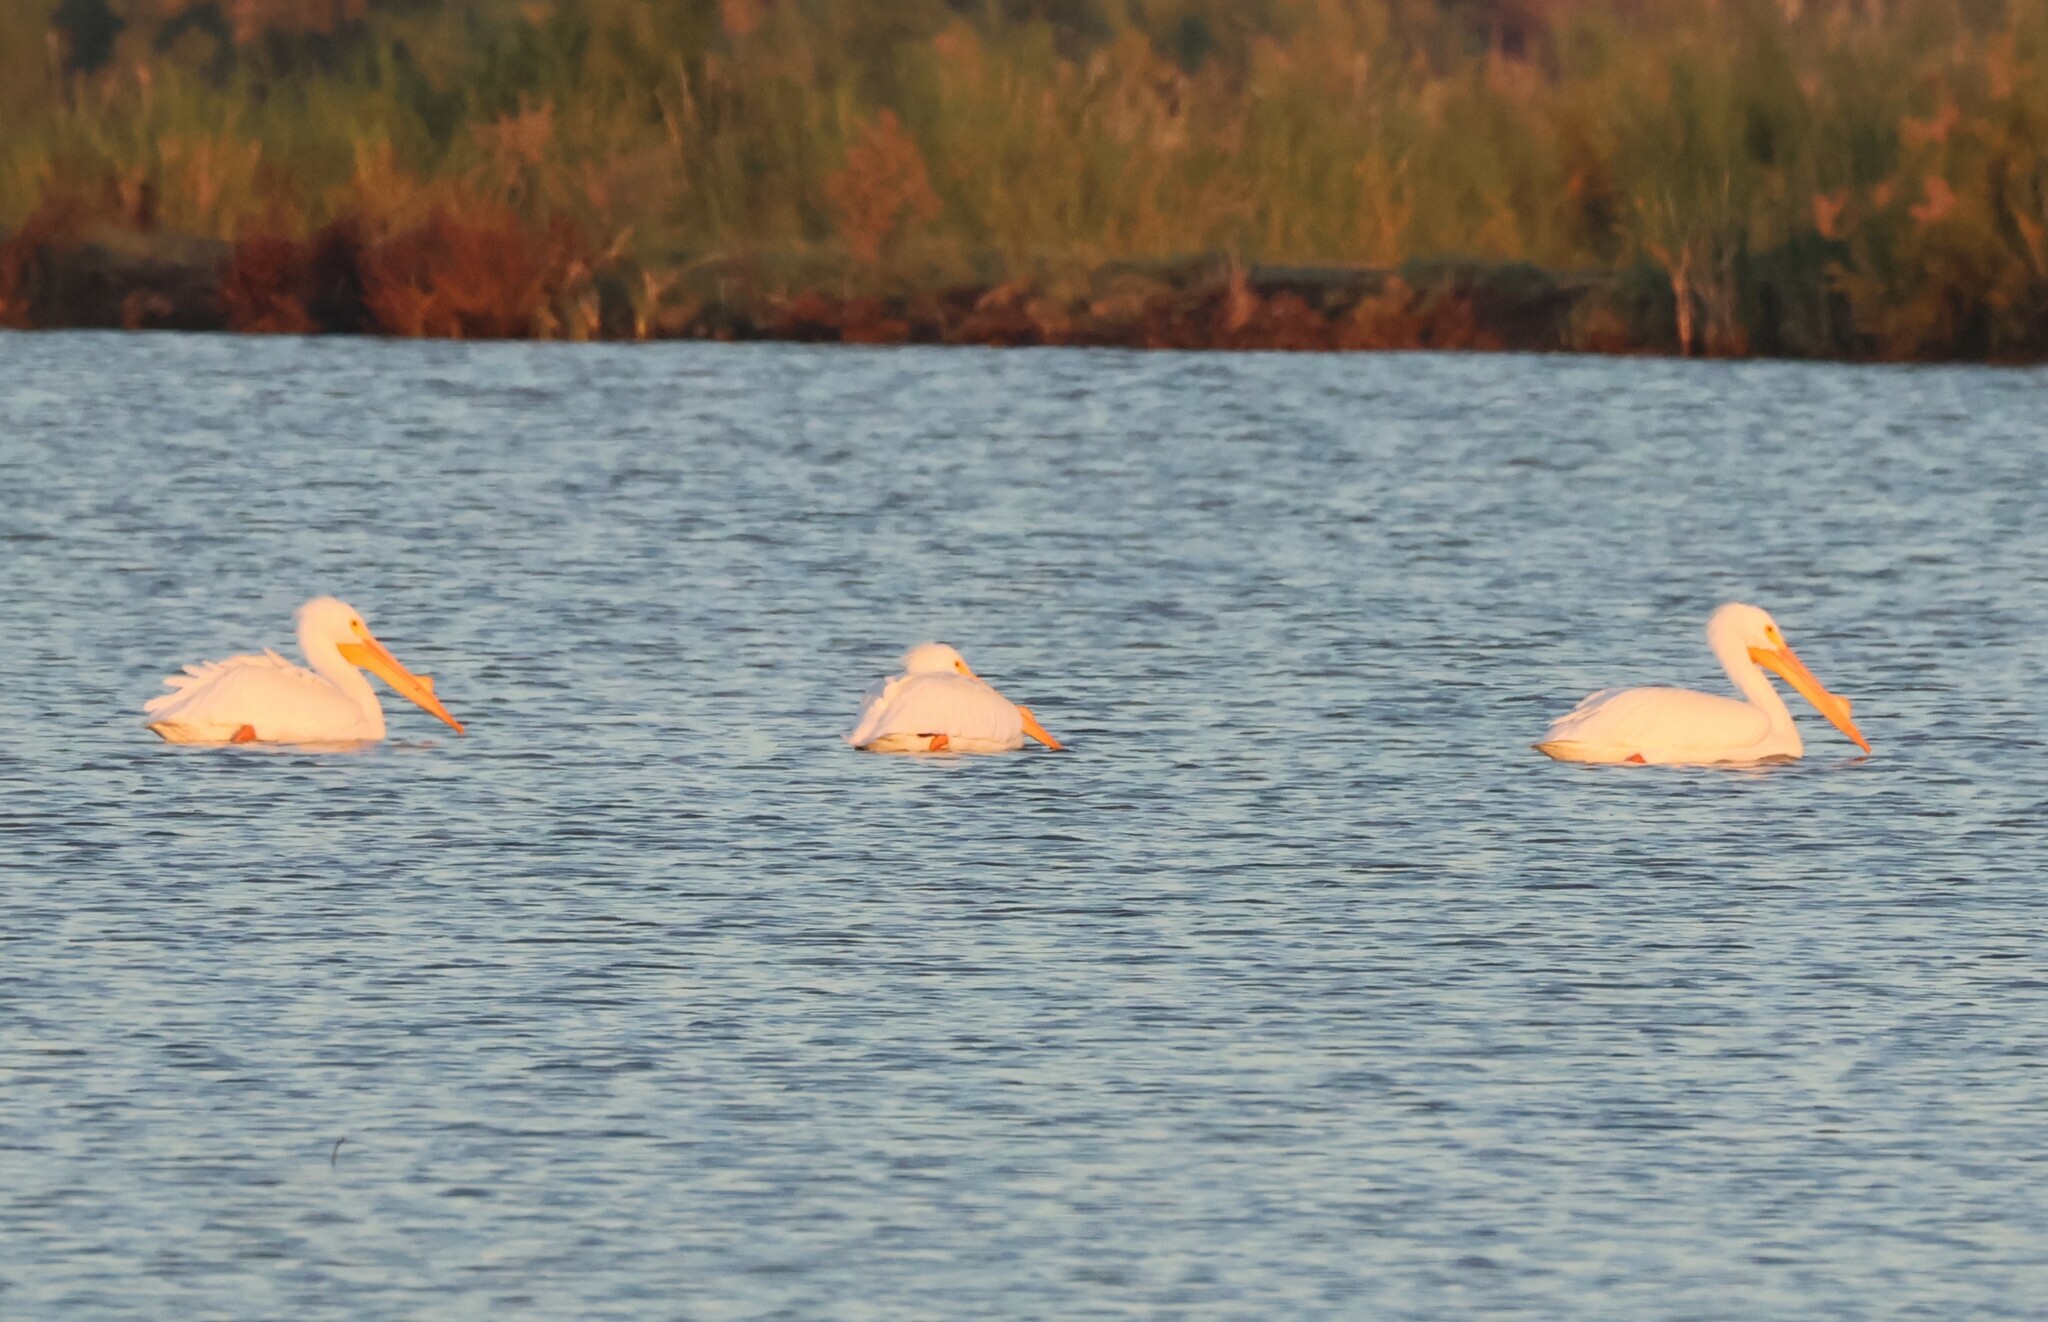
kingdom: Animalia
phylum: Chordata
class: Aves
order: Pelecaniformes
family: Pelecanidae
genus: Pelecanus
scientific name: Pelecanus erythrorhynchos
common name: American white pelican
